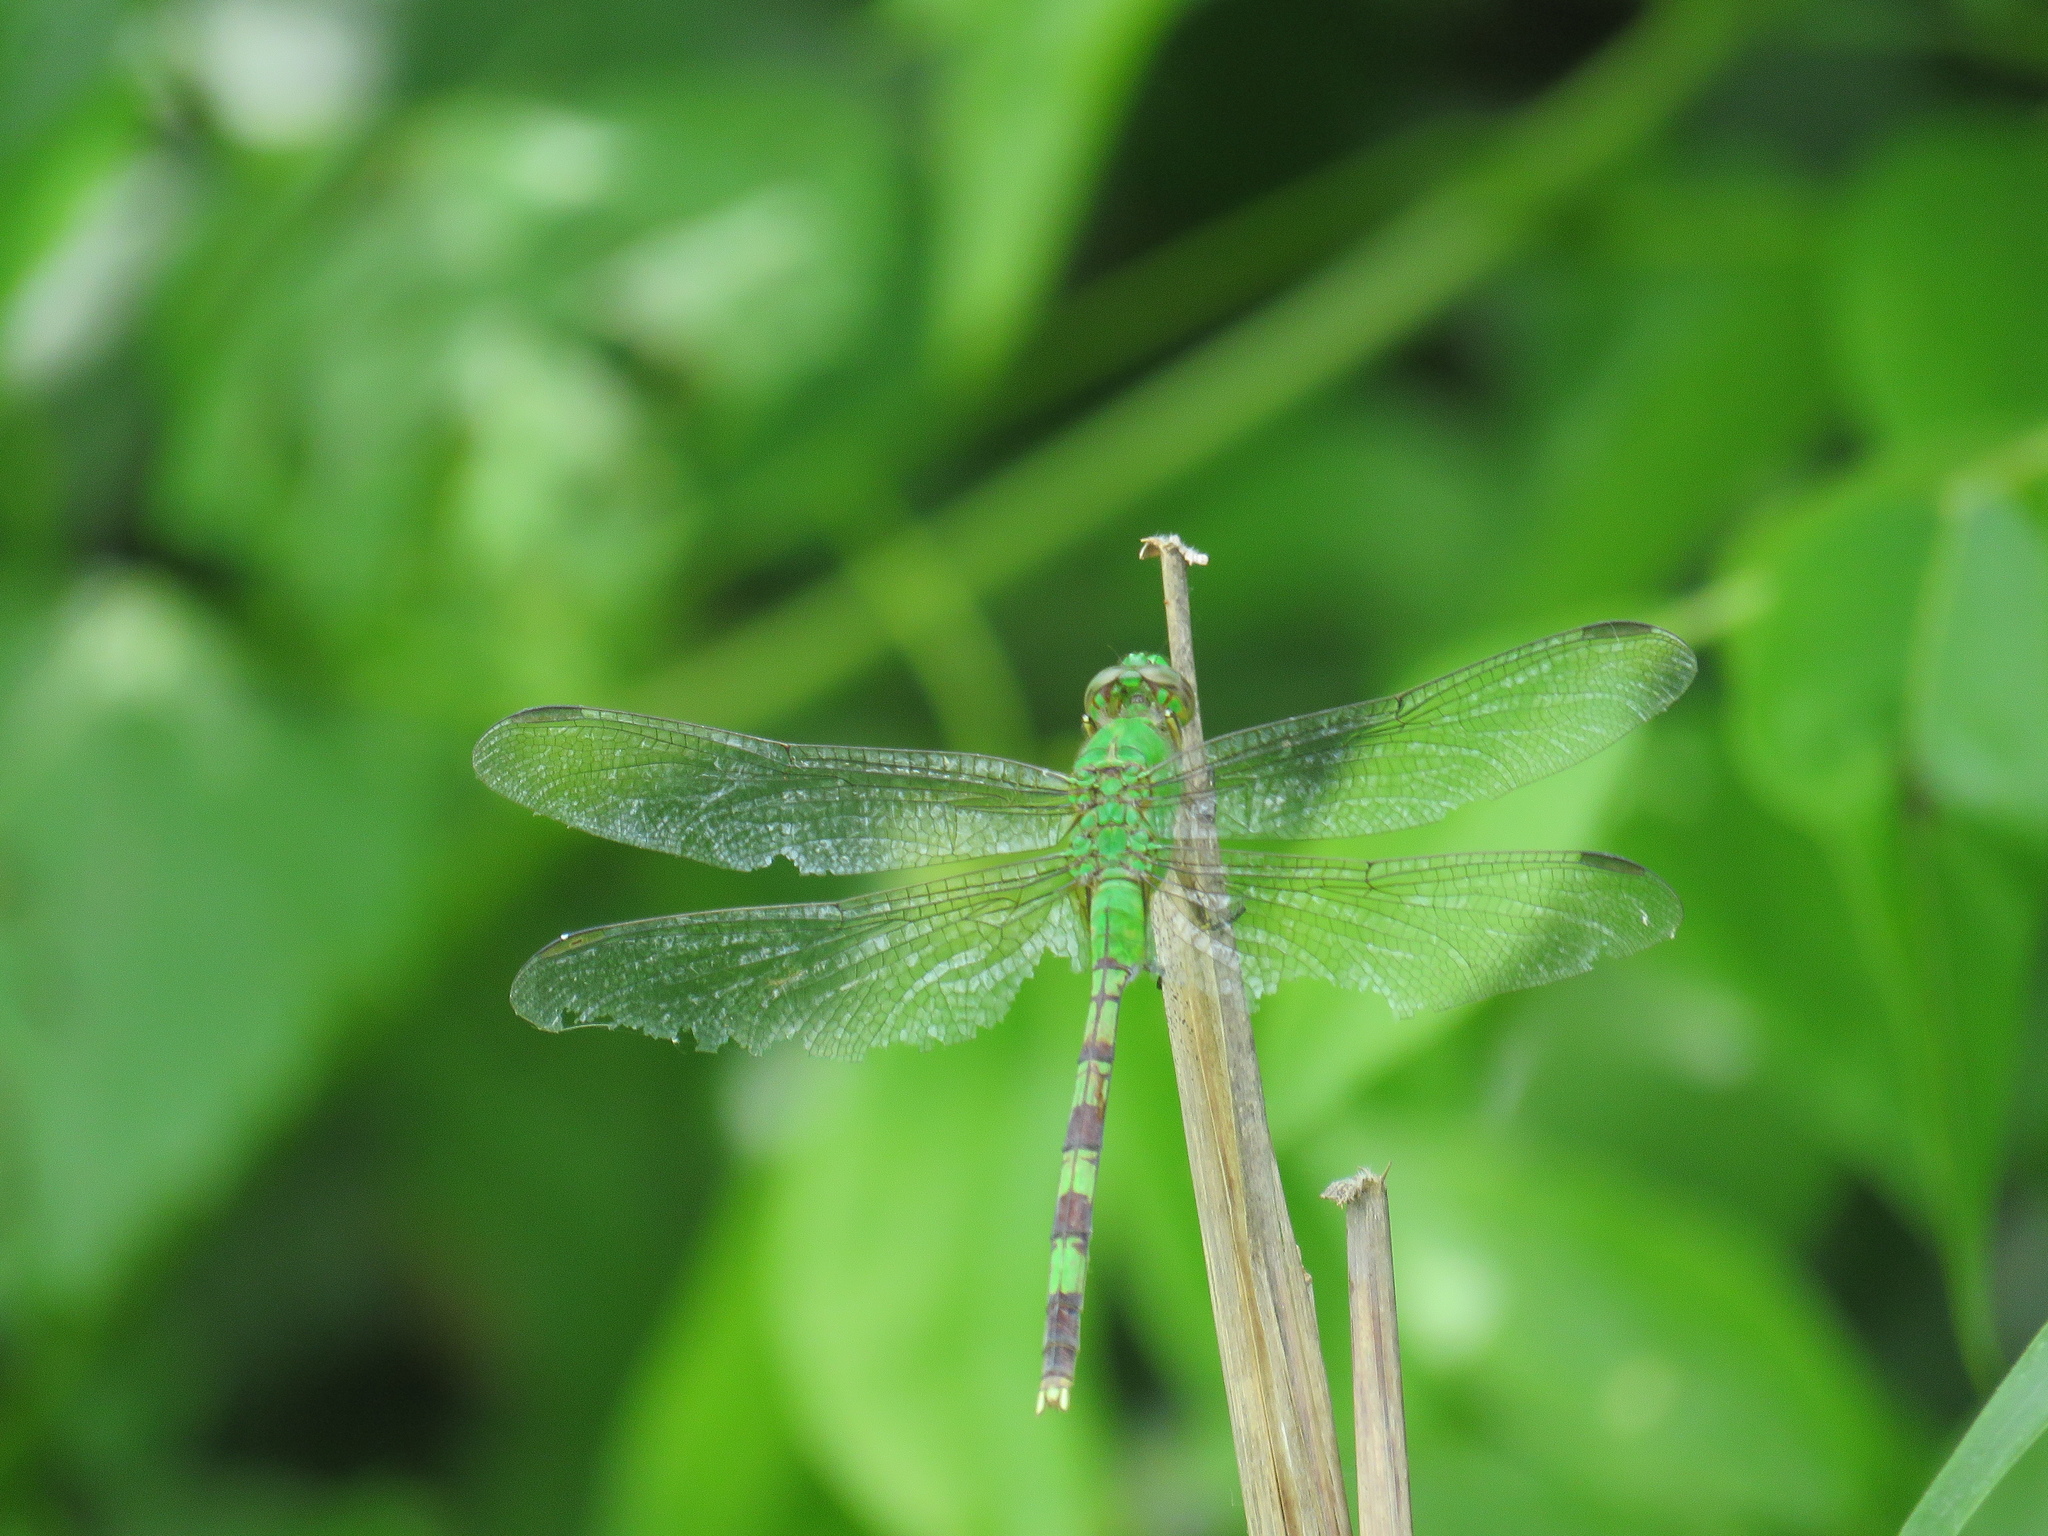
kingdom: Animalia
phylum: Arthropoda
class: Insecta
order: Odonata
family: Libellulidae
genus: Erythemis
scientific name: Erythemis vesiculosa
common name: Great pondhawk
